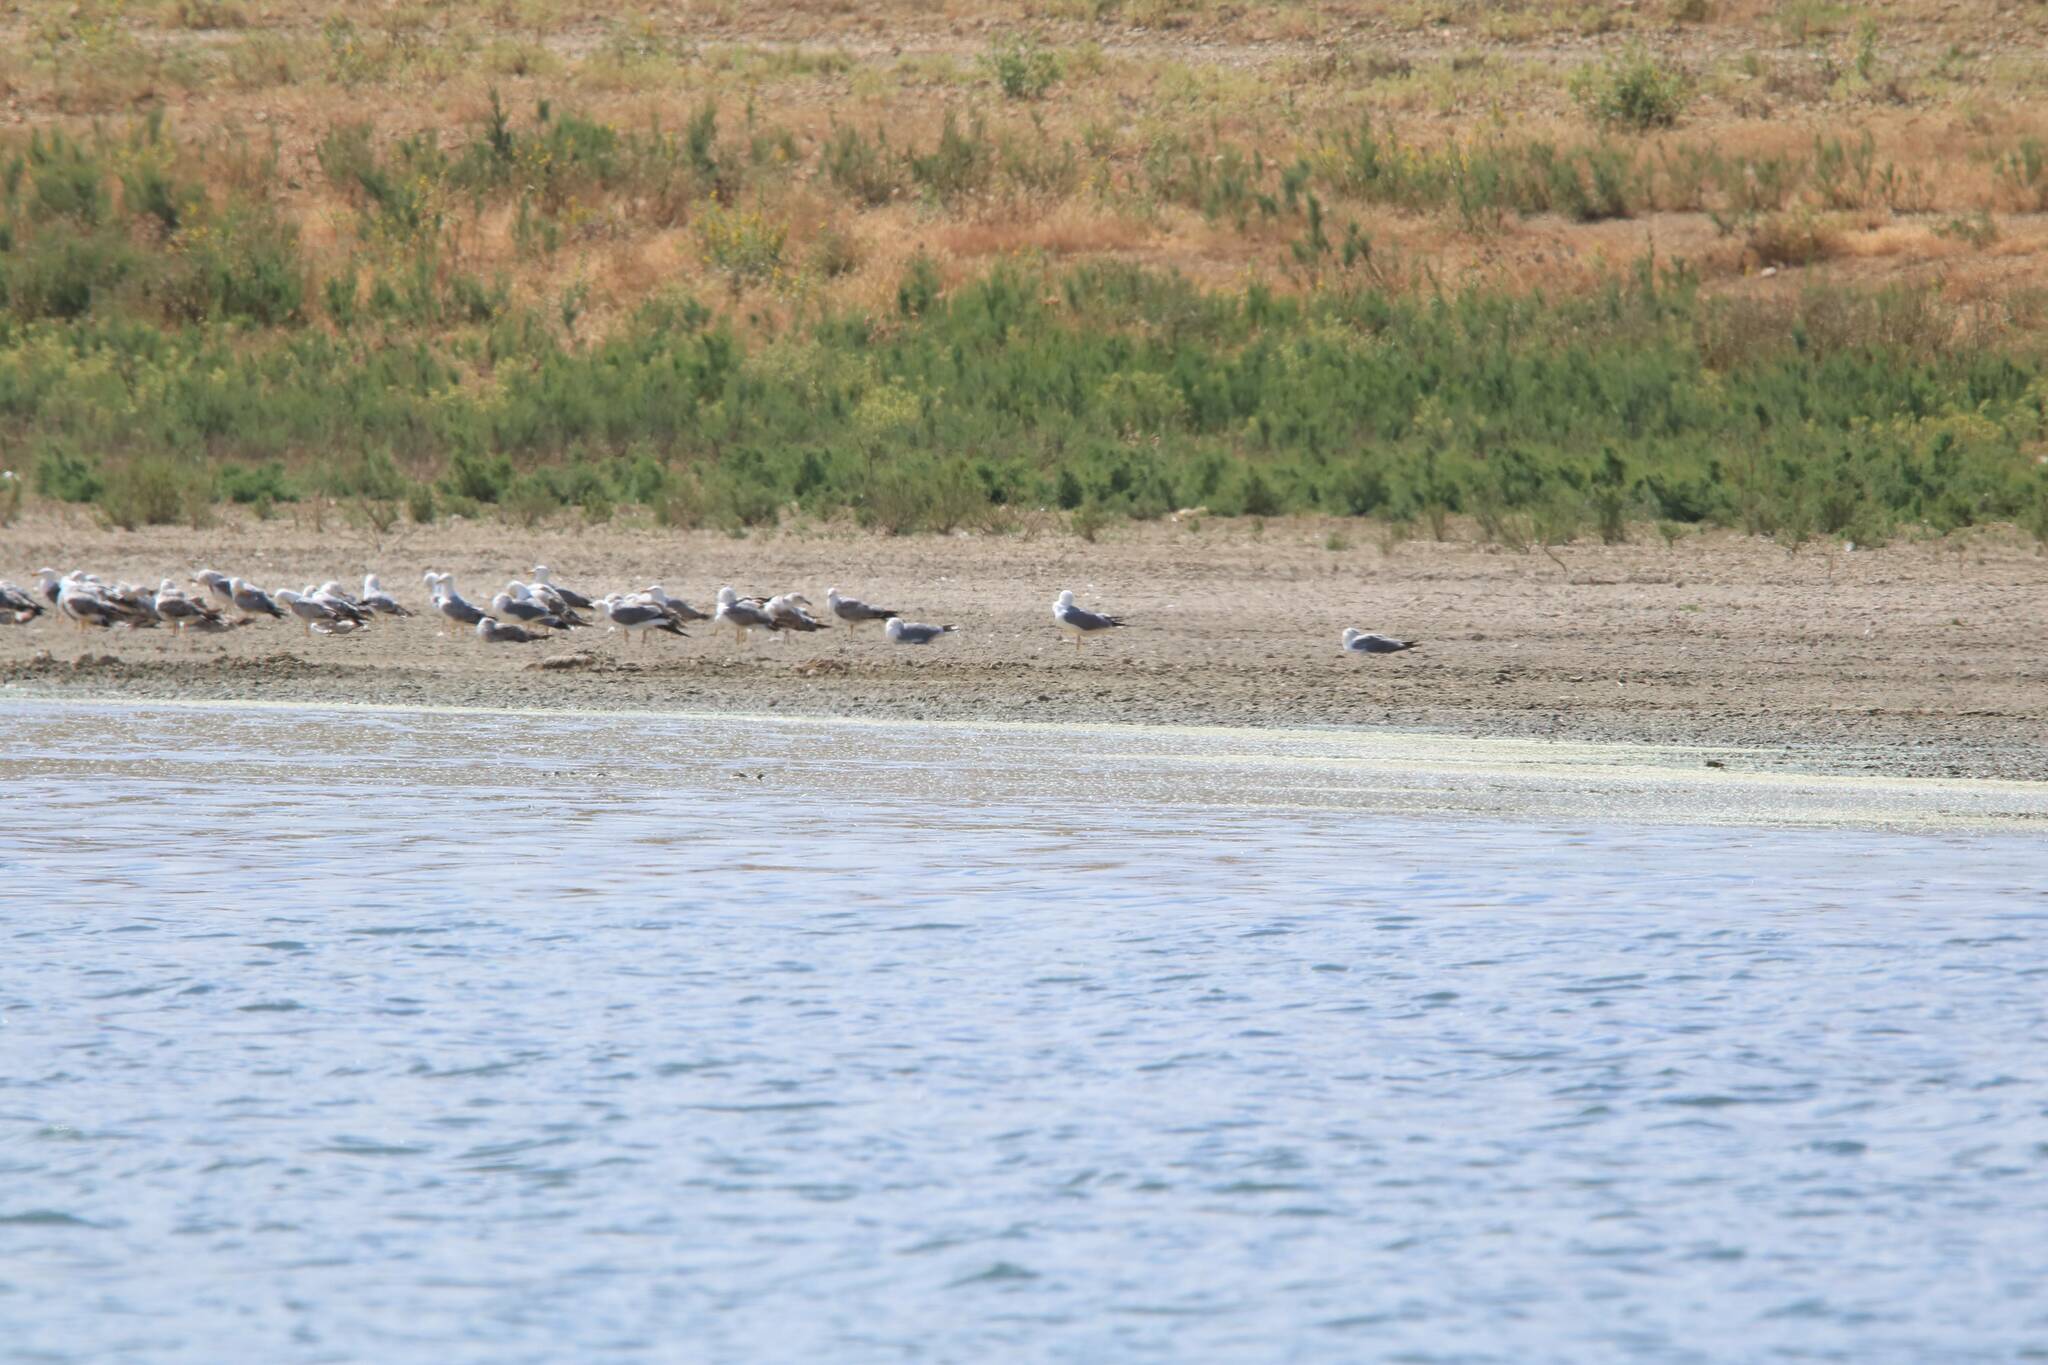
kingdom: Animalia
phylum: Chordata
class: Aves
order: Charadriiformes
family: Laridae
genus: Larus
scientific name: Larus michahellis
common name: Yellow-legged gull
